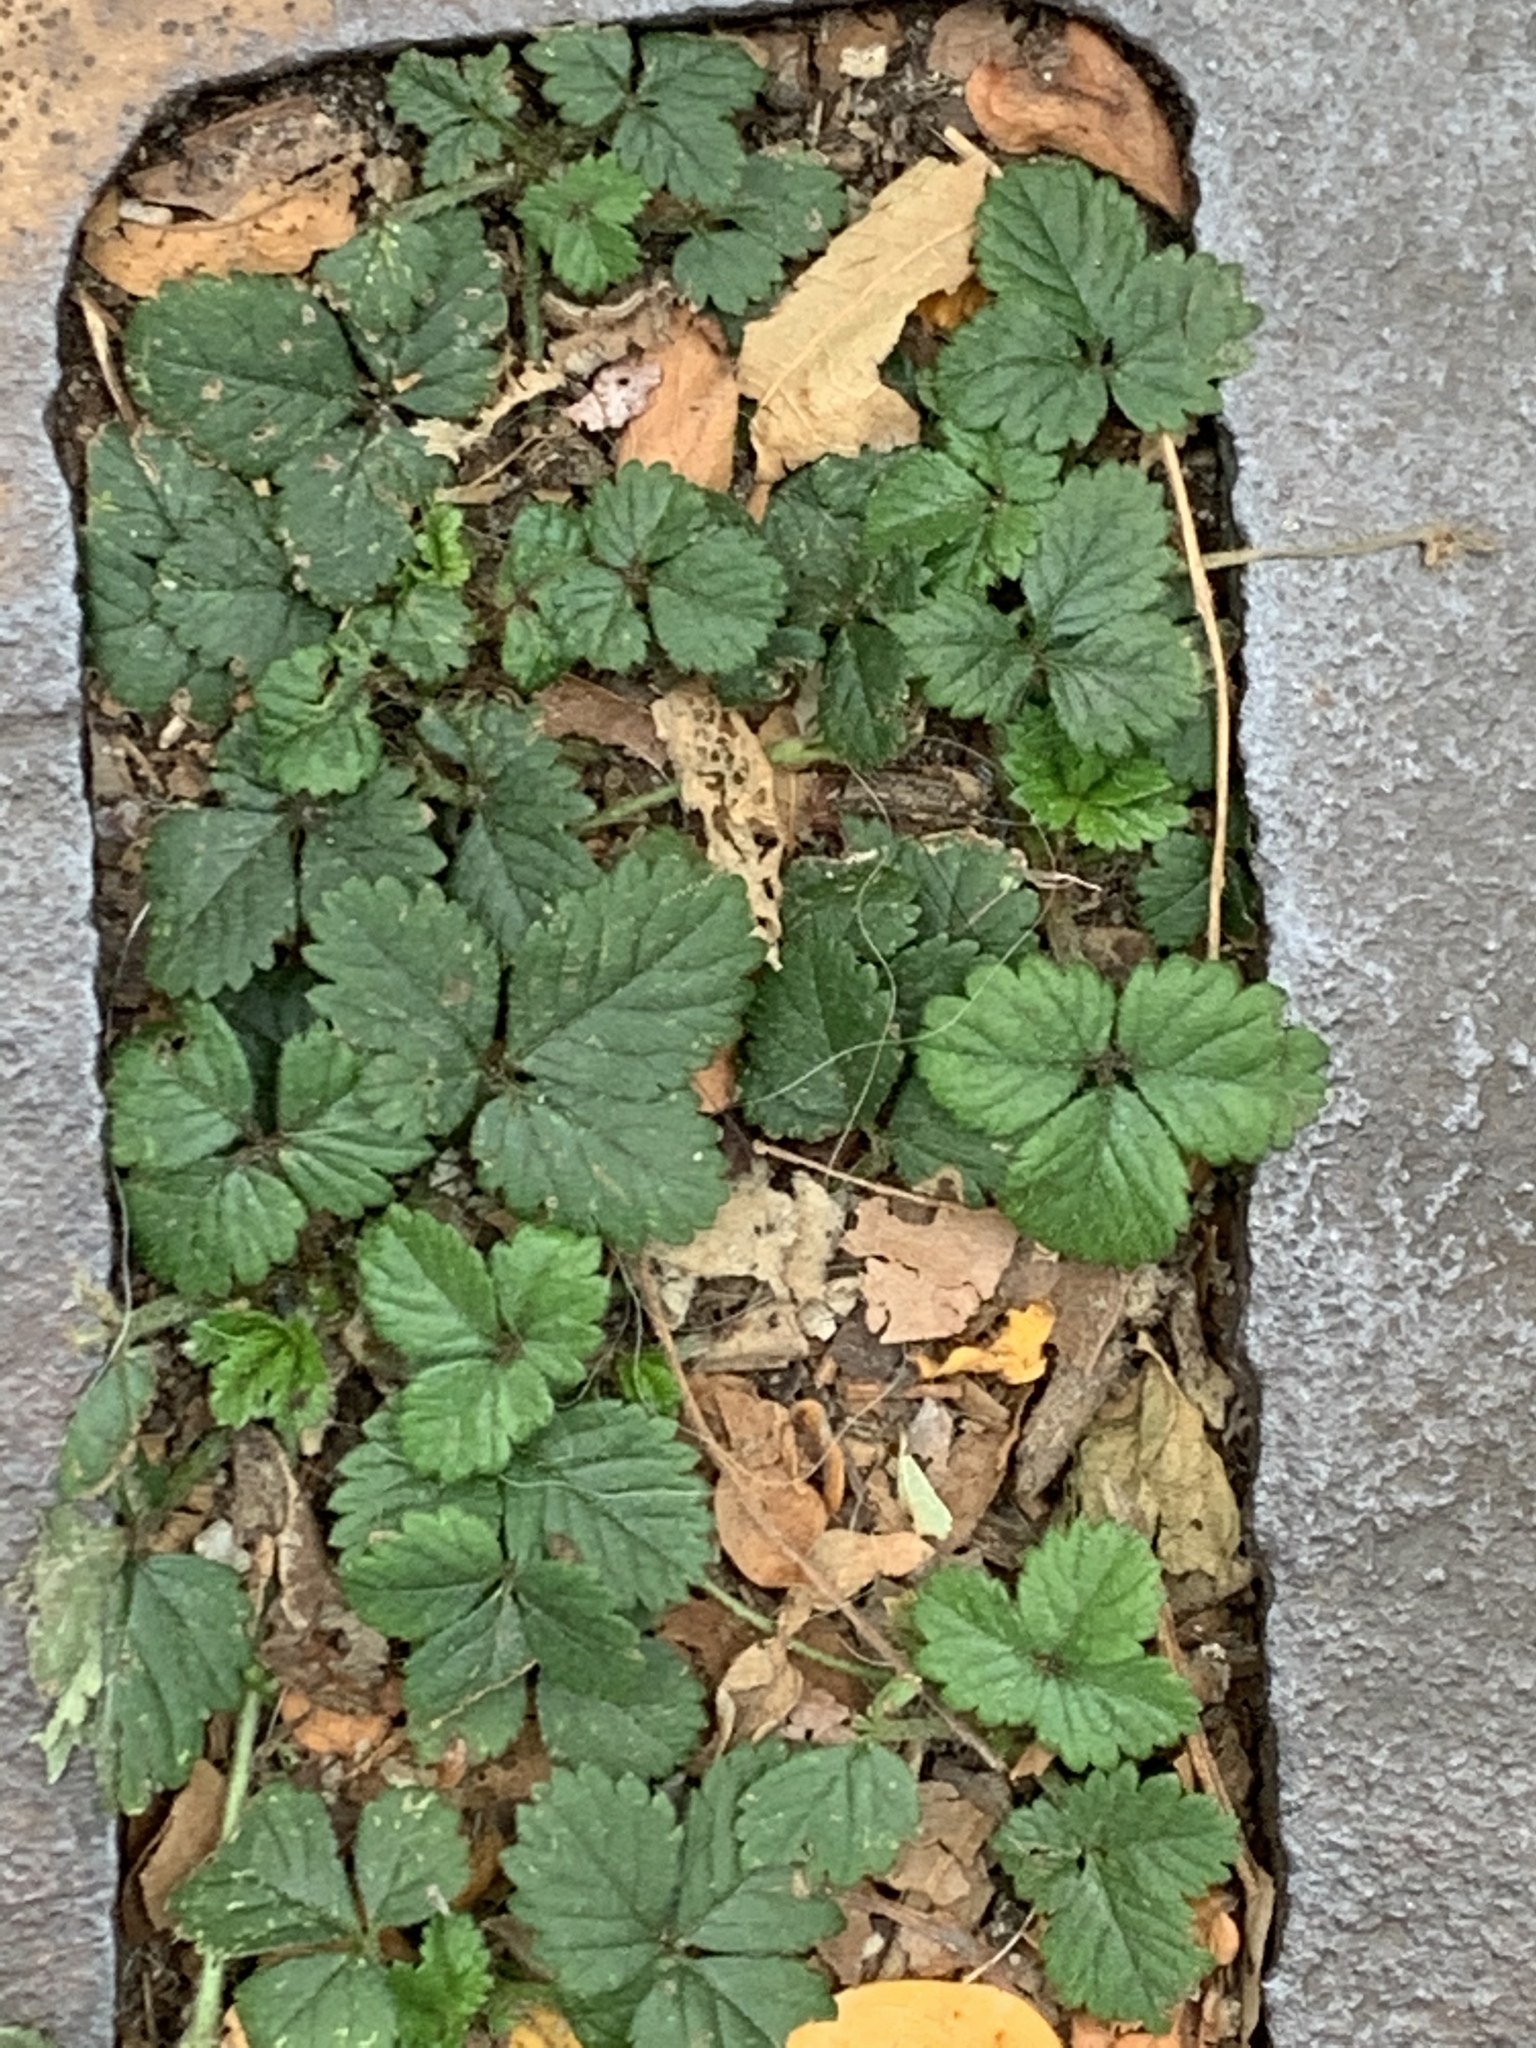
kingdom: Plantae
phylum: Tracheophyta
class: Magnoliopsida
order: Rosales
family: Rosaceae
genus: Potentilla
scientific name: Potentilla indica
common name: Yellow-flowered strawberry
